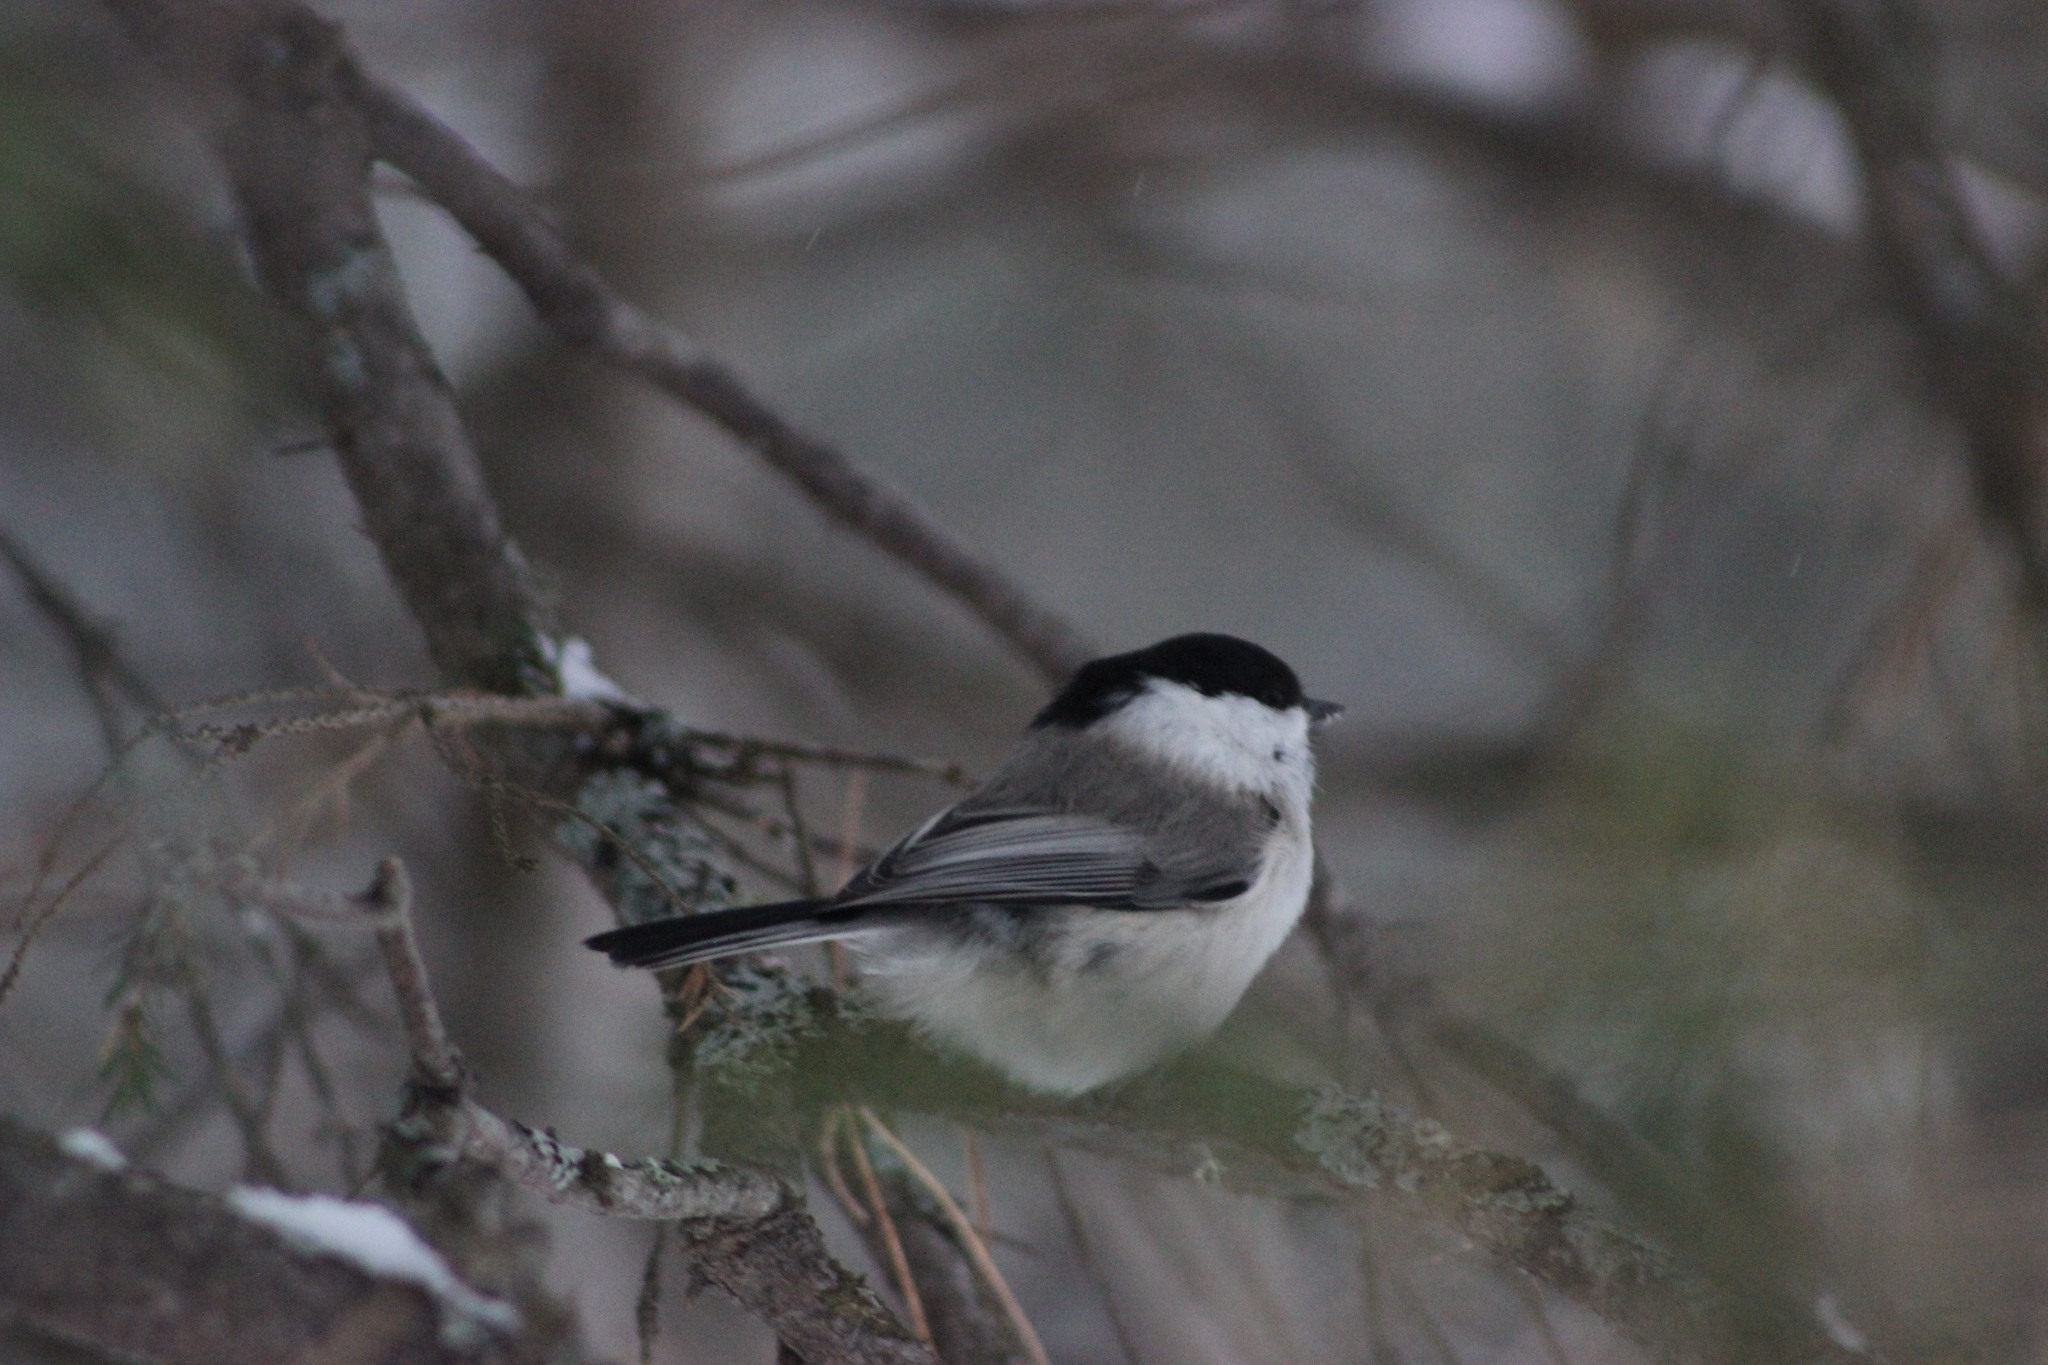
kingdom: Animalia
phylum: Chordata
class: Aves
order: Passeriformes
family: Paridae
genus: Poecile
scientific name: Poecile montanus
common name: Willow tit
